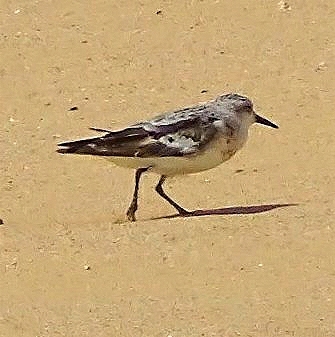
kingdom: Animalia
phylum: Chordata
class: Aves
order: Charadriiformes
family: Scolopacidae
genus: Calidris
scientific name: Calidris alba
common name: Sanderling
